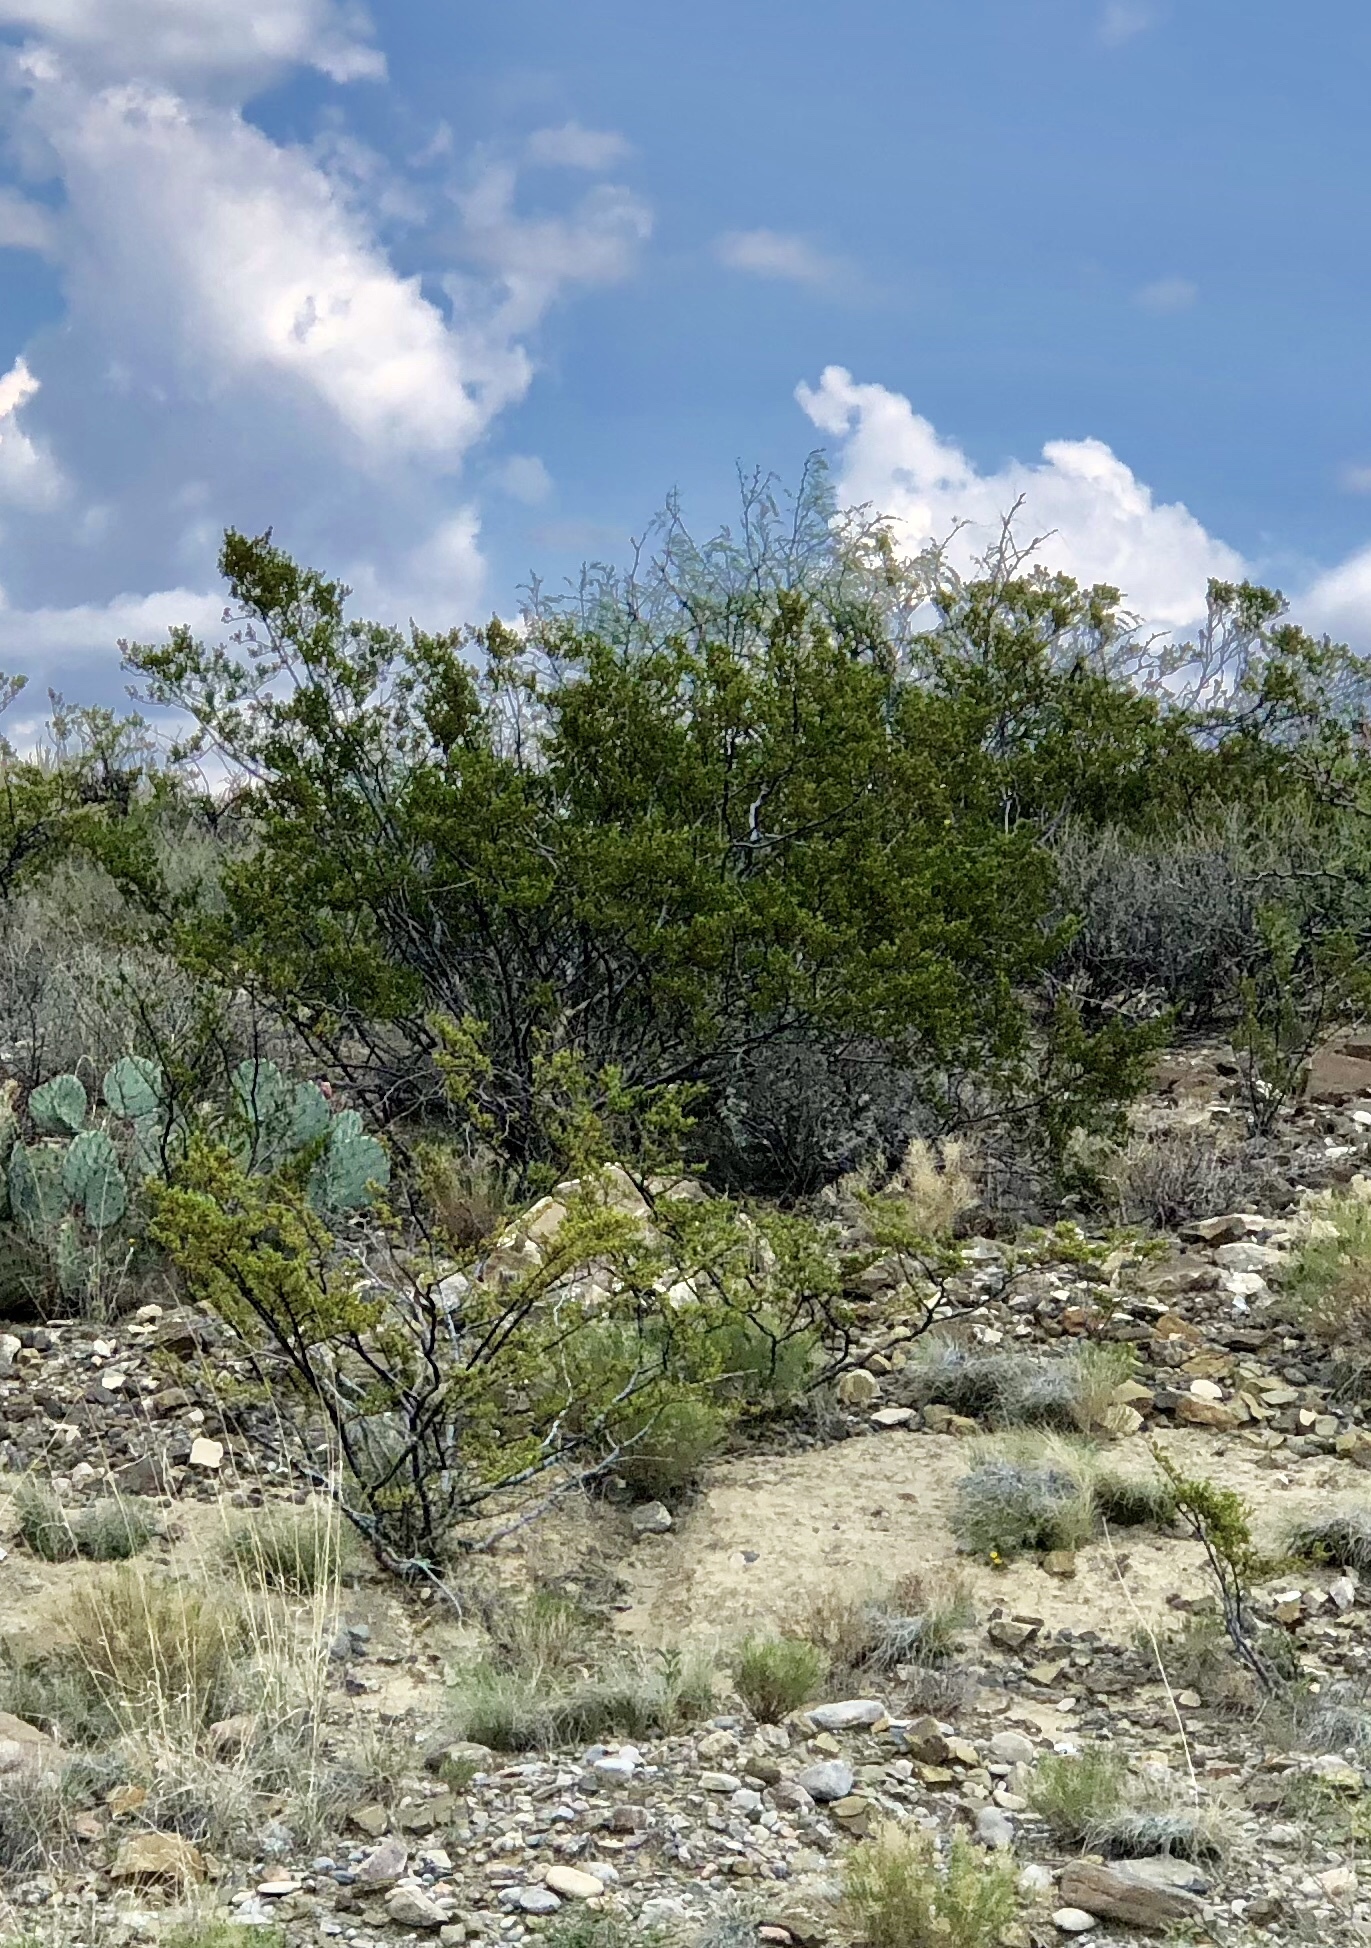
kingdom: Plantae
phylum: Tracheophyta
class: Magnoliopsida
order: Zygophyllales
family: Zygophyllaceae
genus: Larrea
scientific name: Larrea tridentata
